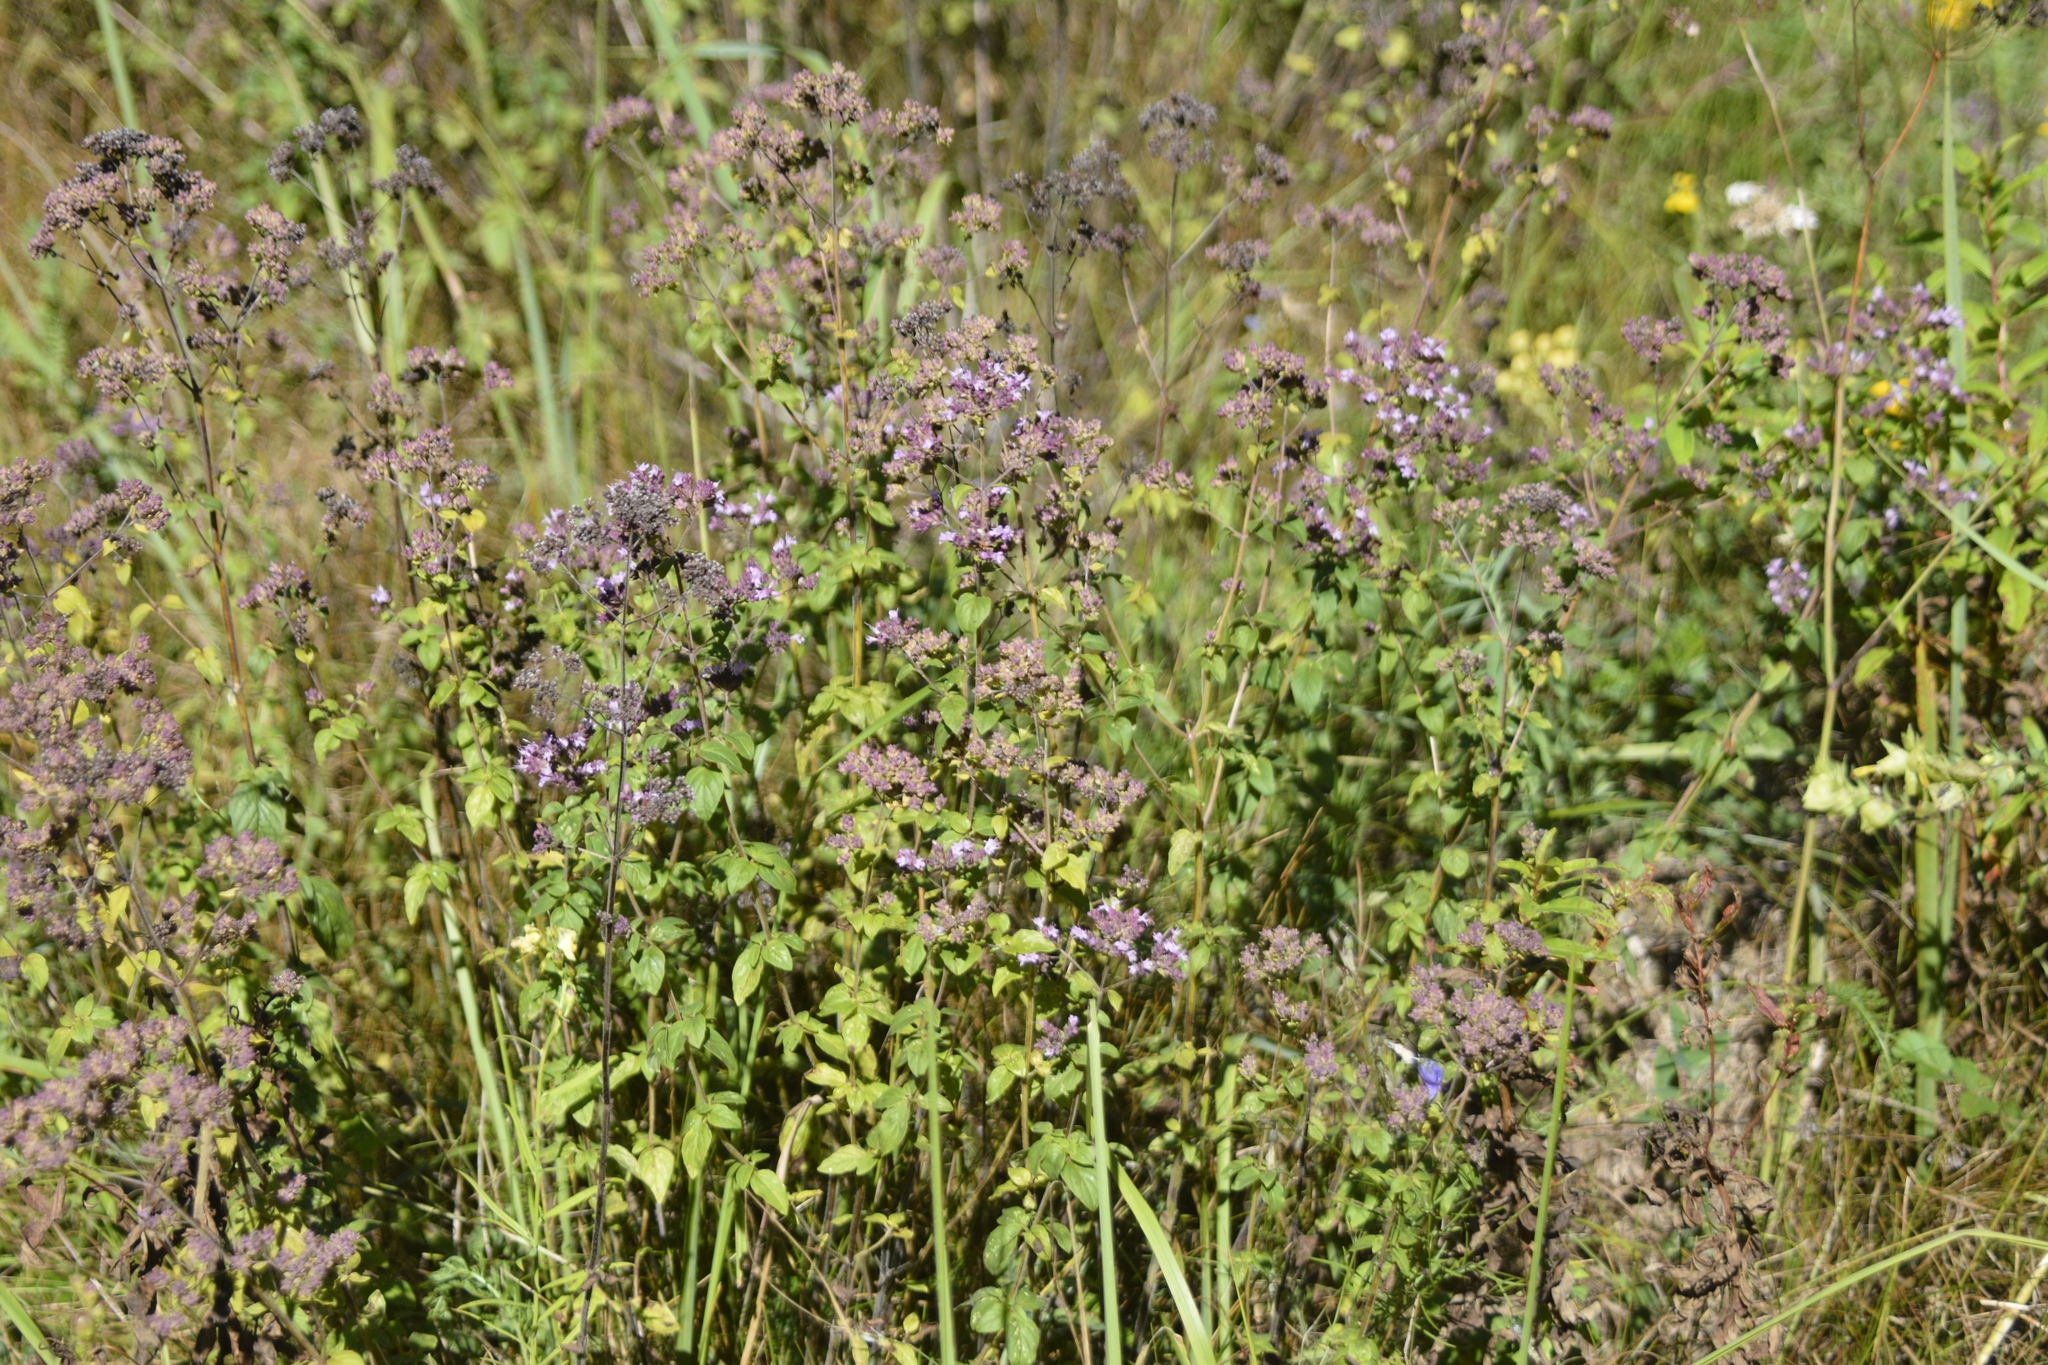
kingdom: Plantae
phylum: Tracheophyta
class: Magnoliopsida
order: Lamiales
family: Lamiaceae
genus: Origanum
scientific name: Origanum vulgare
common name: Wild marjoram
